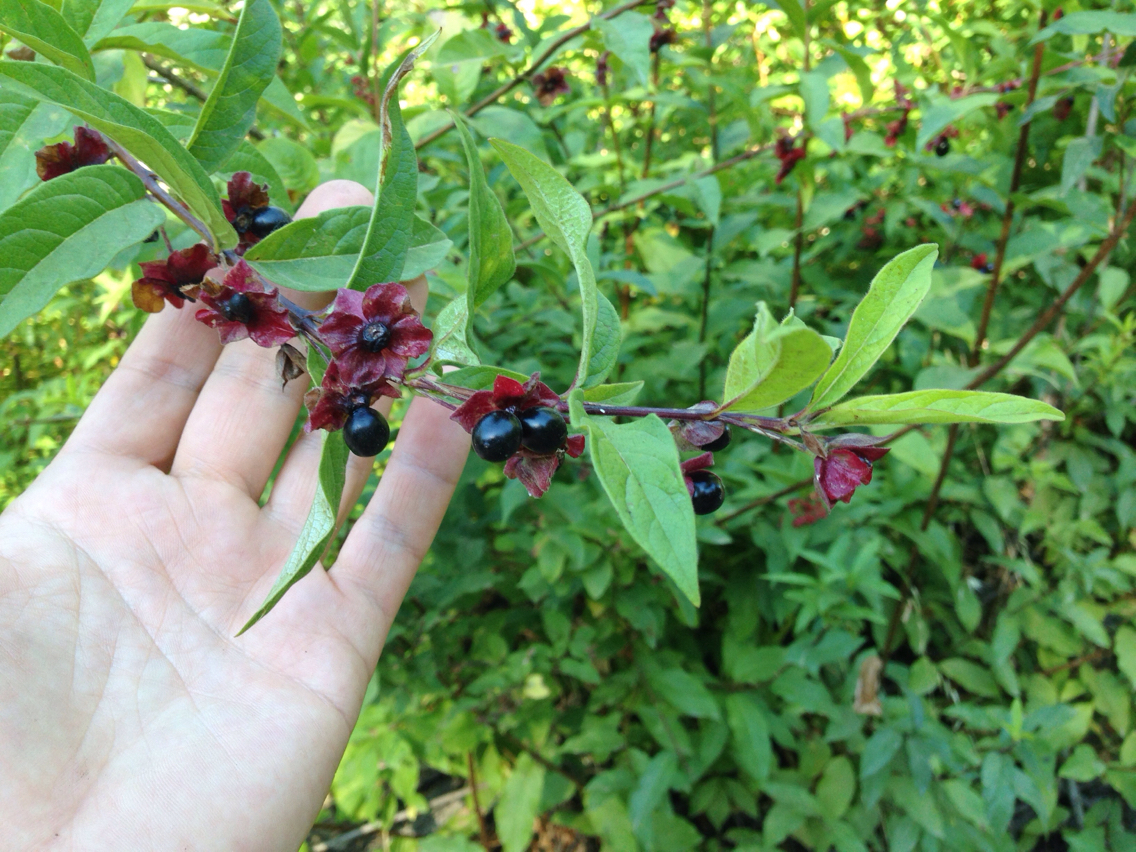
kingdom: Plantae
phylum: Tracheophyta
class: Magnoliopsida
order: Dipsacales
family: Caprifoliaceae
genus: Lonicera
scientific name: Lonicera involucrata
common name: Californian honeysuckle
